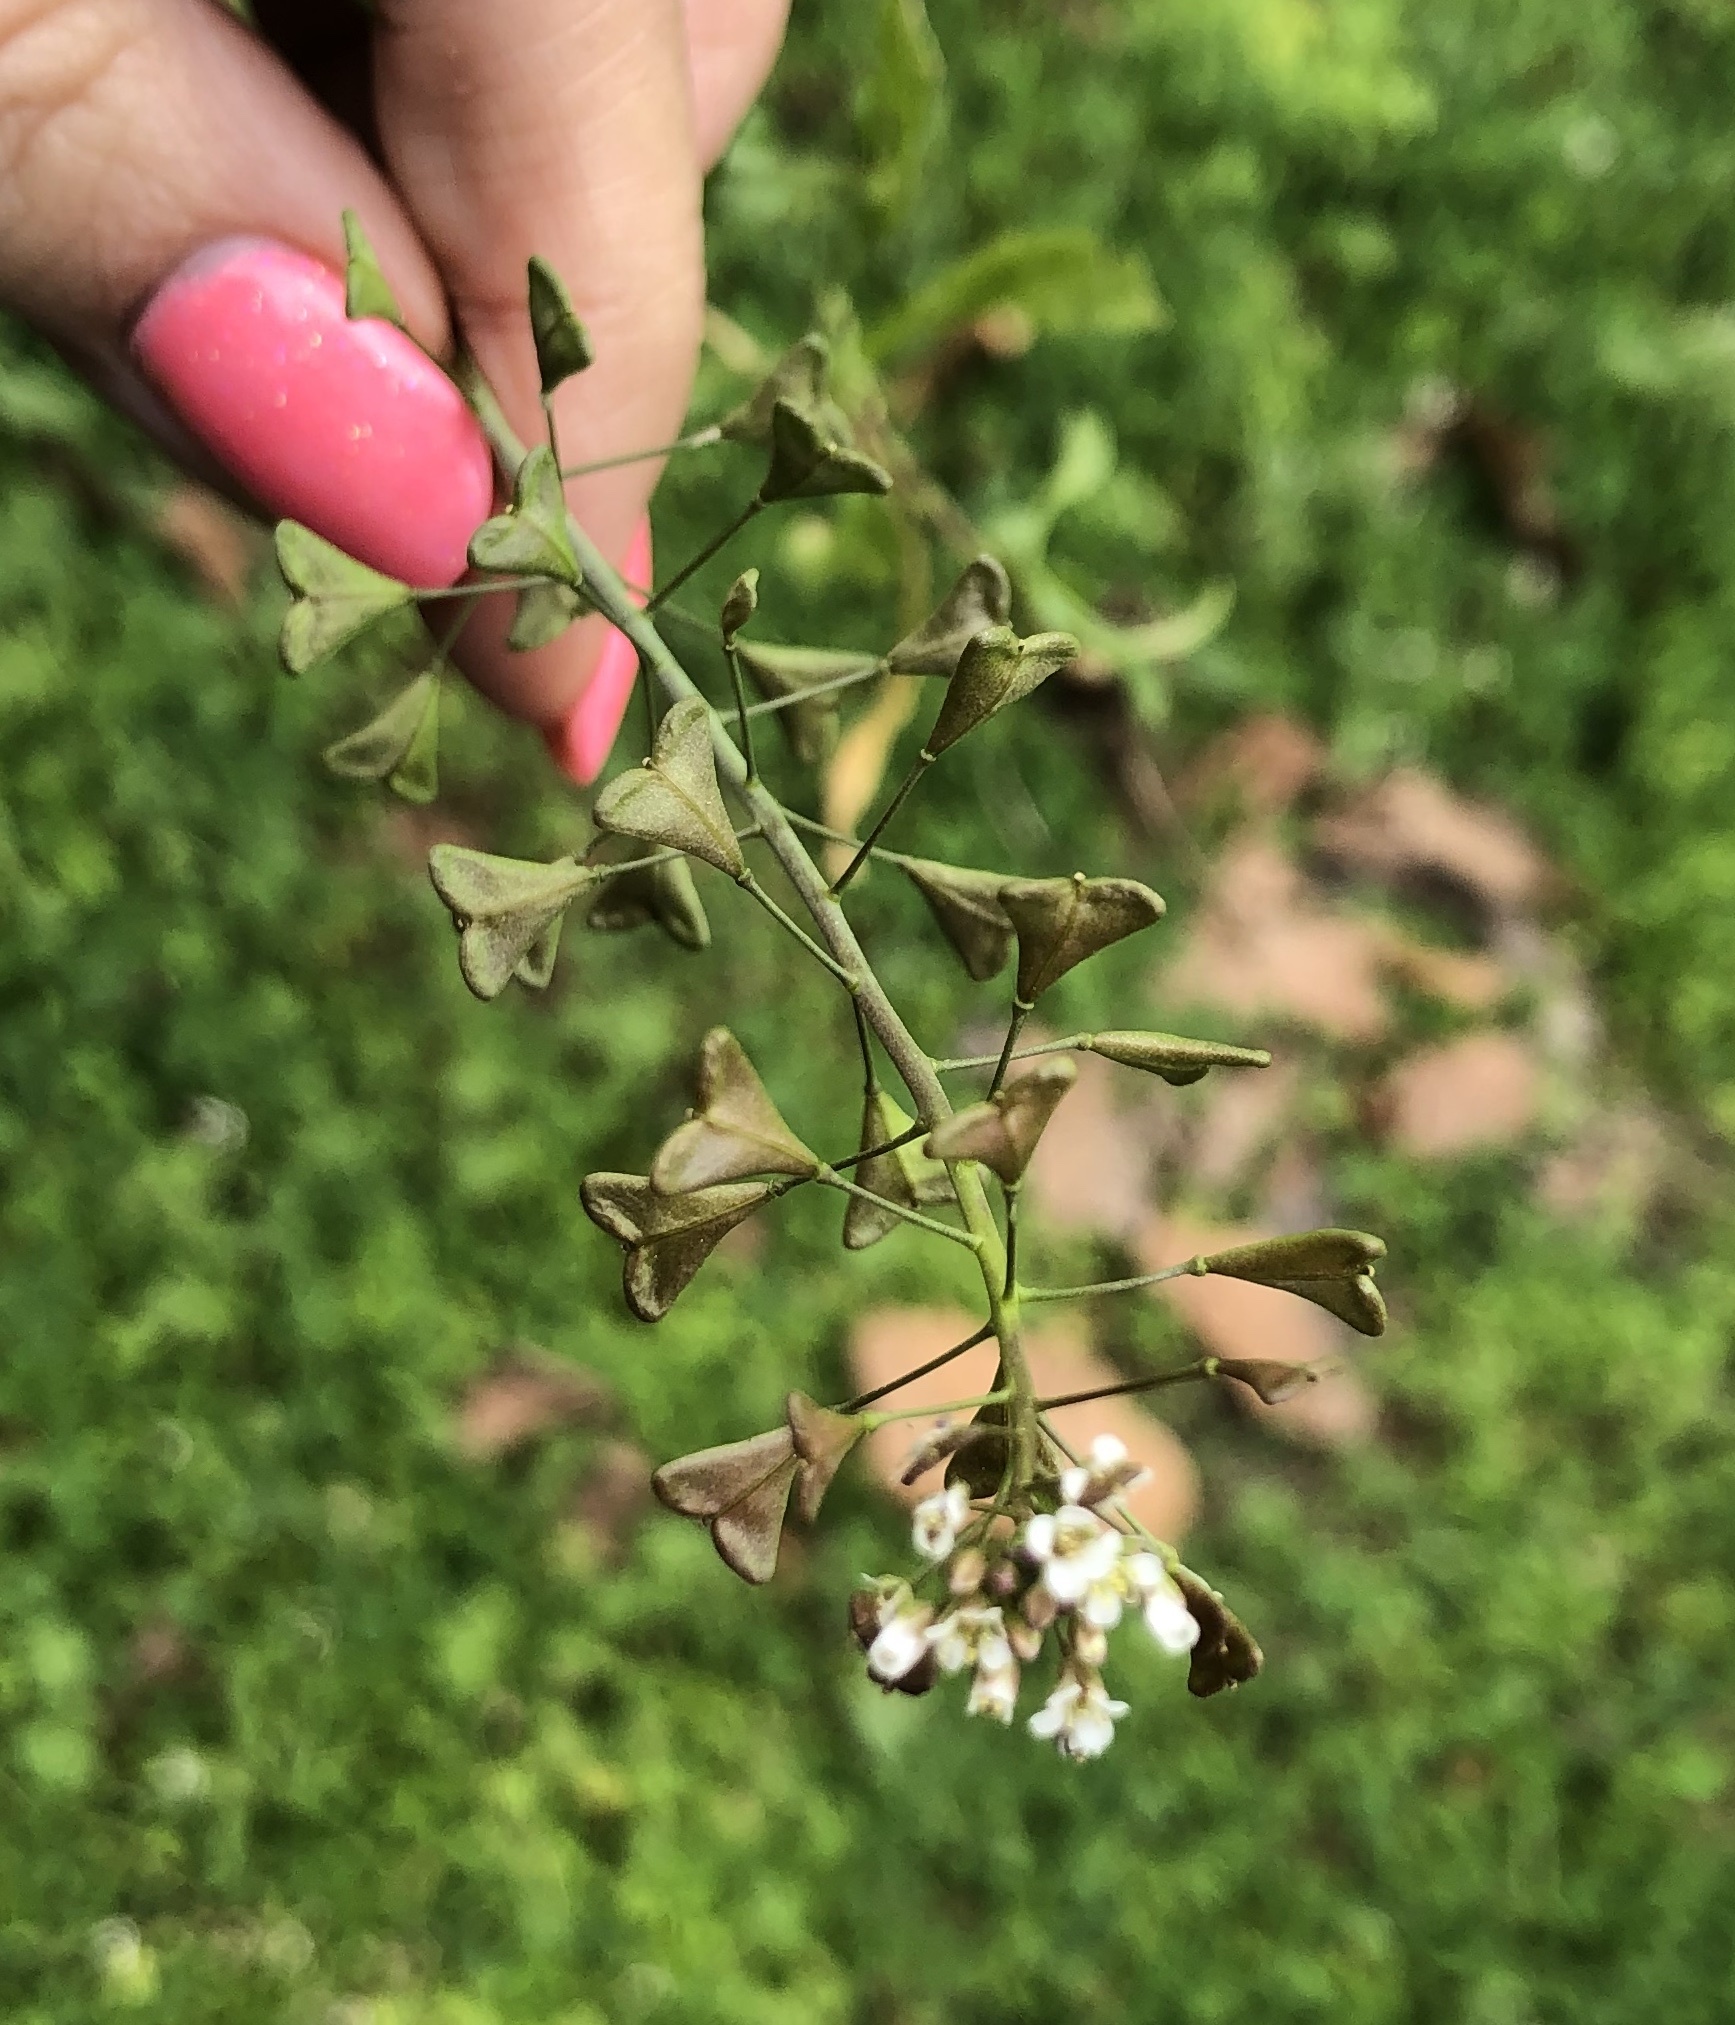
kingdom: Plantae
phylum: Tracheophyta
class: Magnoliopsida
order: Brassicales
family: Brassicaceae
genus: Capsella
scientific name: Capsella bursa-pastoris
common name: Shepherd's purse
